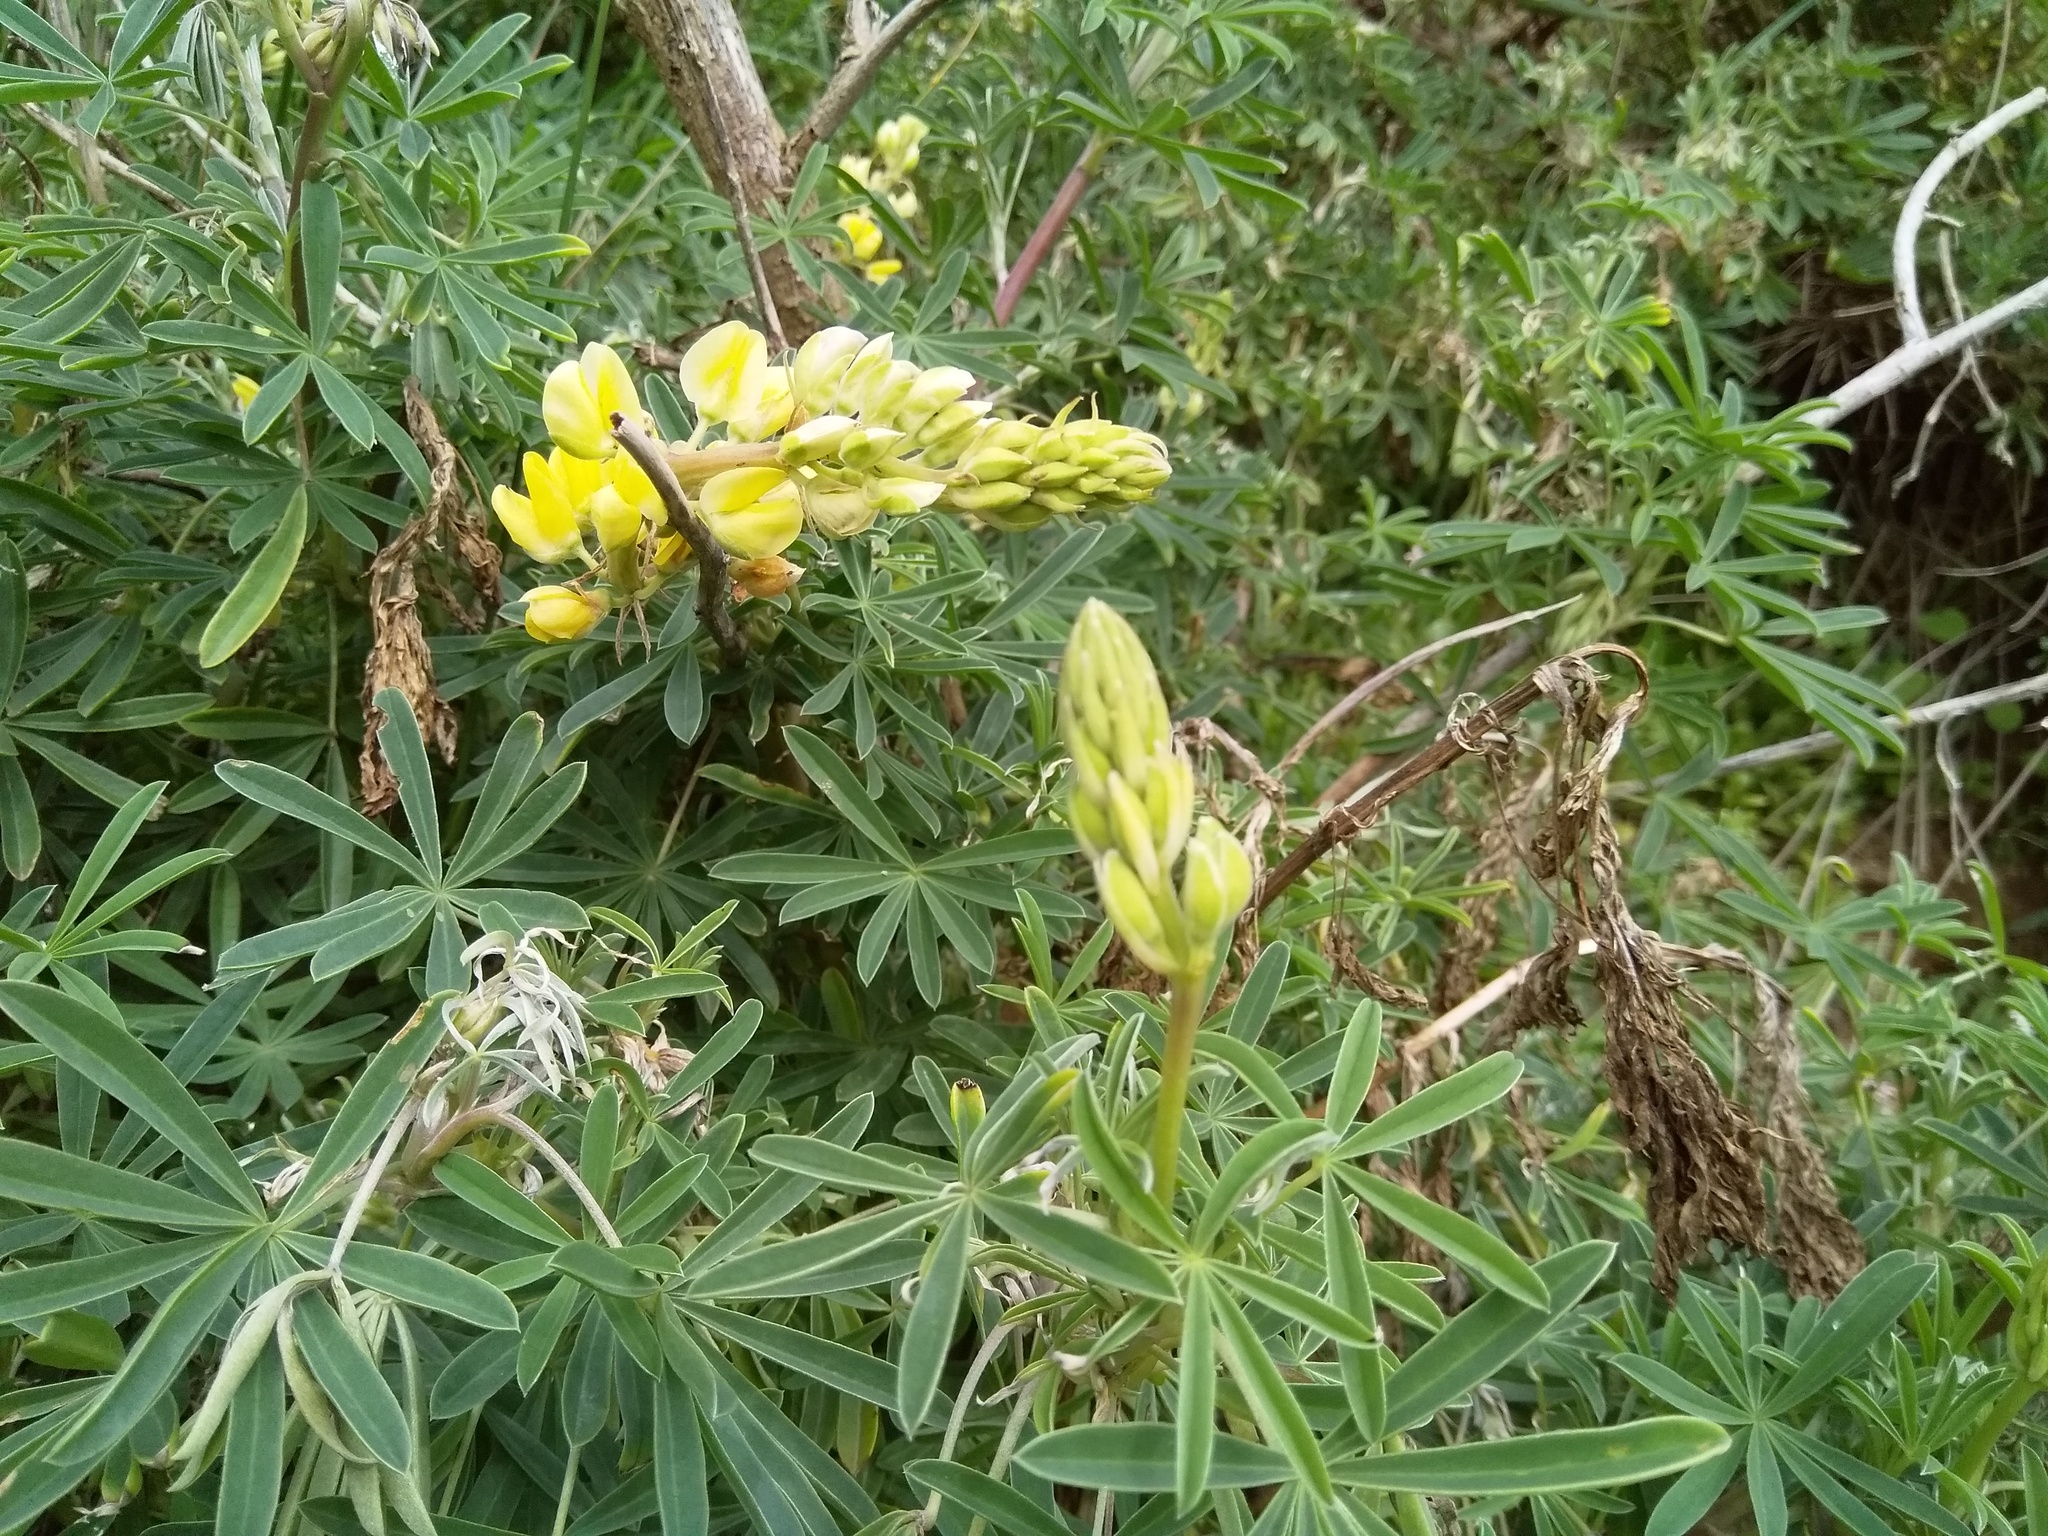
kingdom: Plantae
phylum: Tracheophyta
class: Magnoliopsida
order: Fabales
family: Fabaceae
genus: Lupinus
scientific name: Lupinus arboreus
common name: Yellow bush lupine
